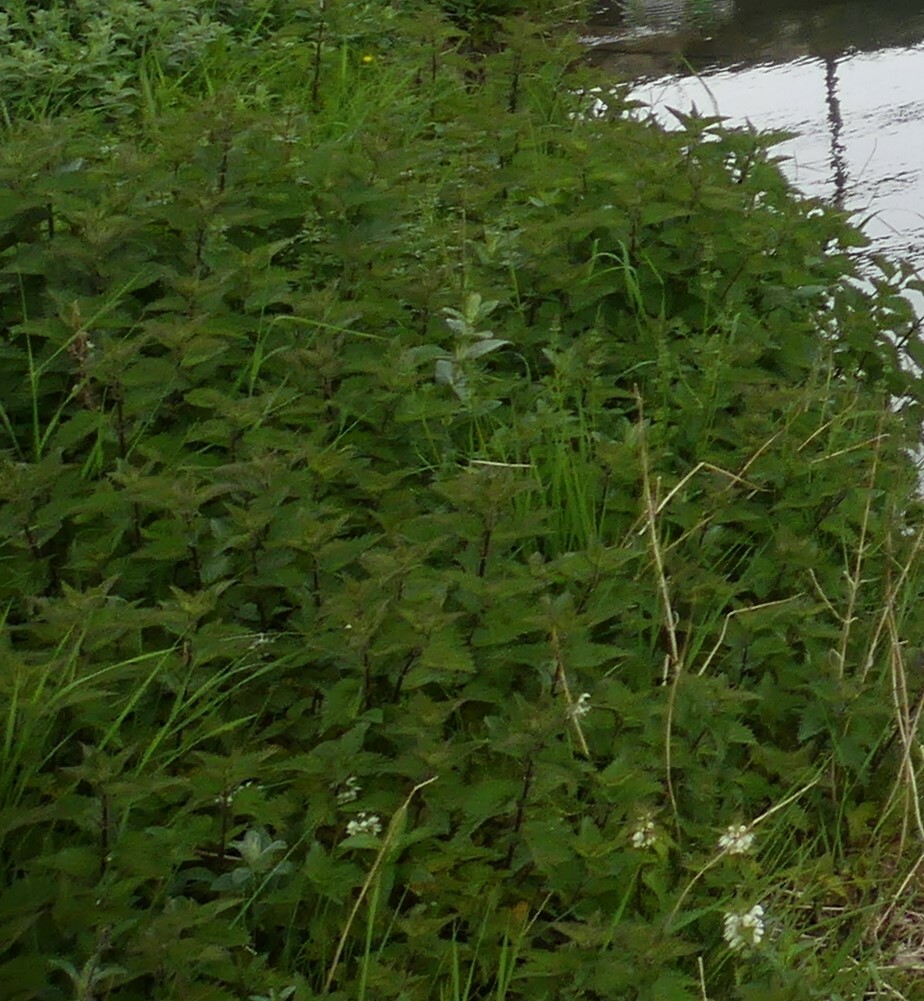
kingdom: Plantae
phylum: Tracheophyta
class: Magnoliopsida
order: Rosales
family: Urticaceae
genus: Urtica
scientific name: Urtica dioica
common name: Common nettle
